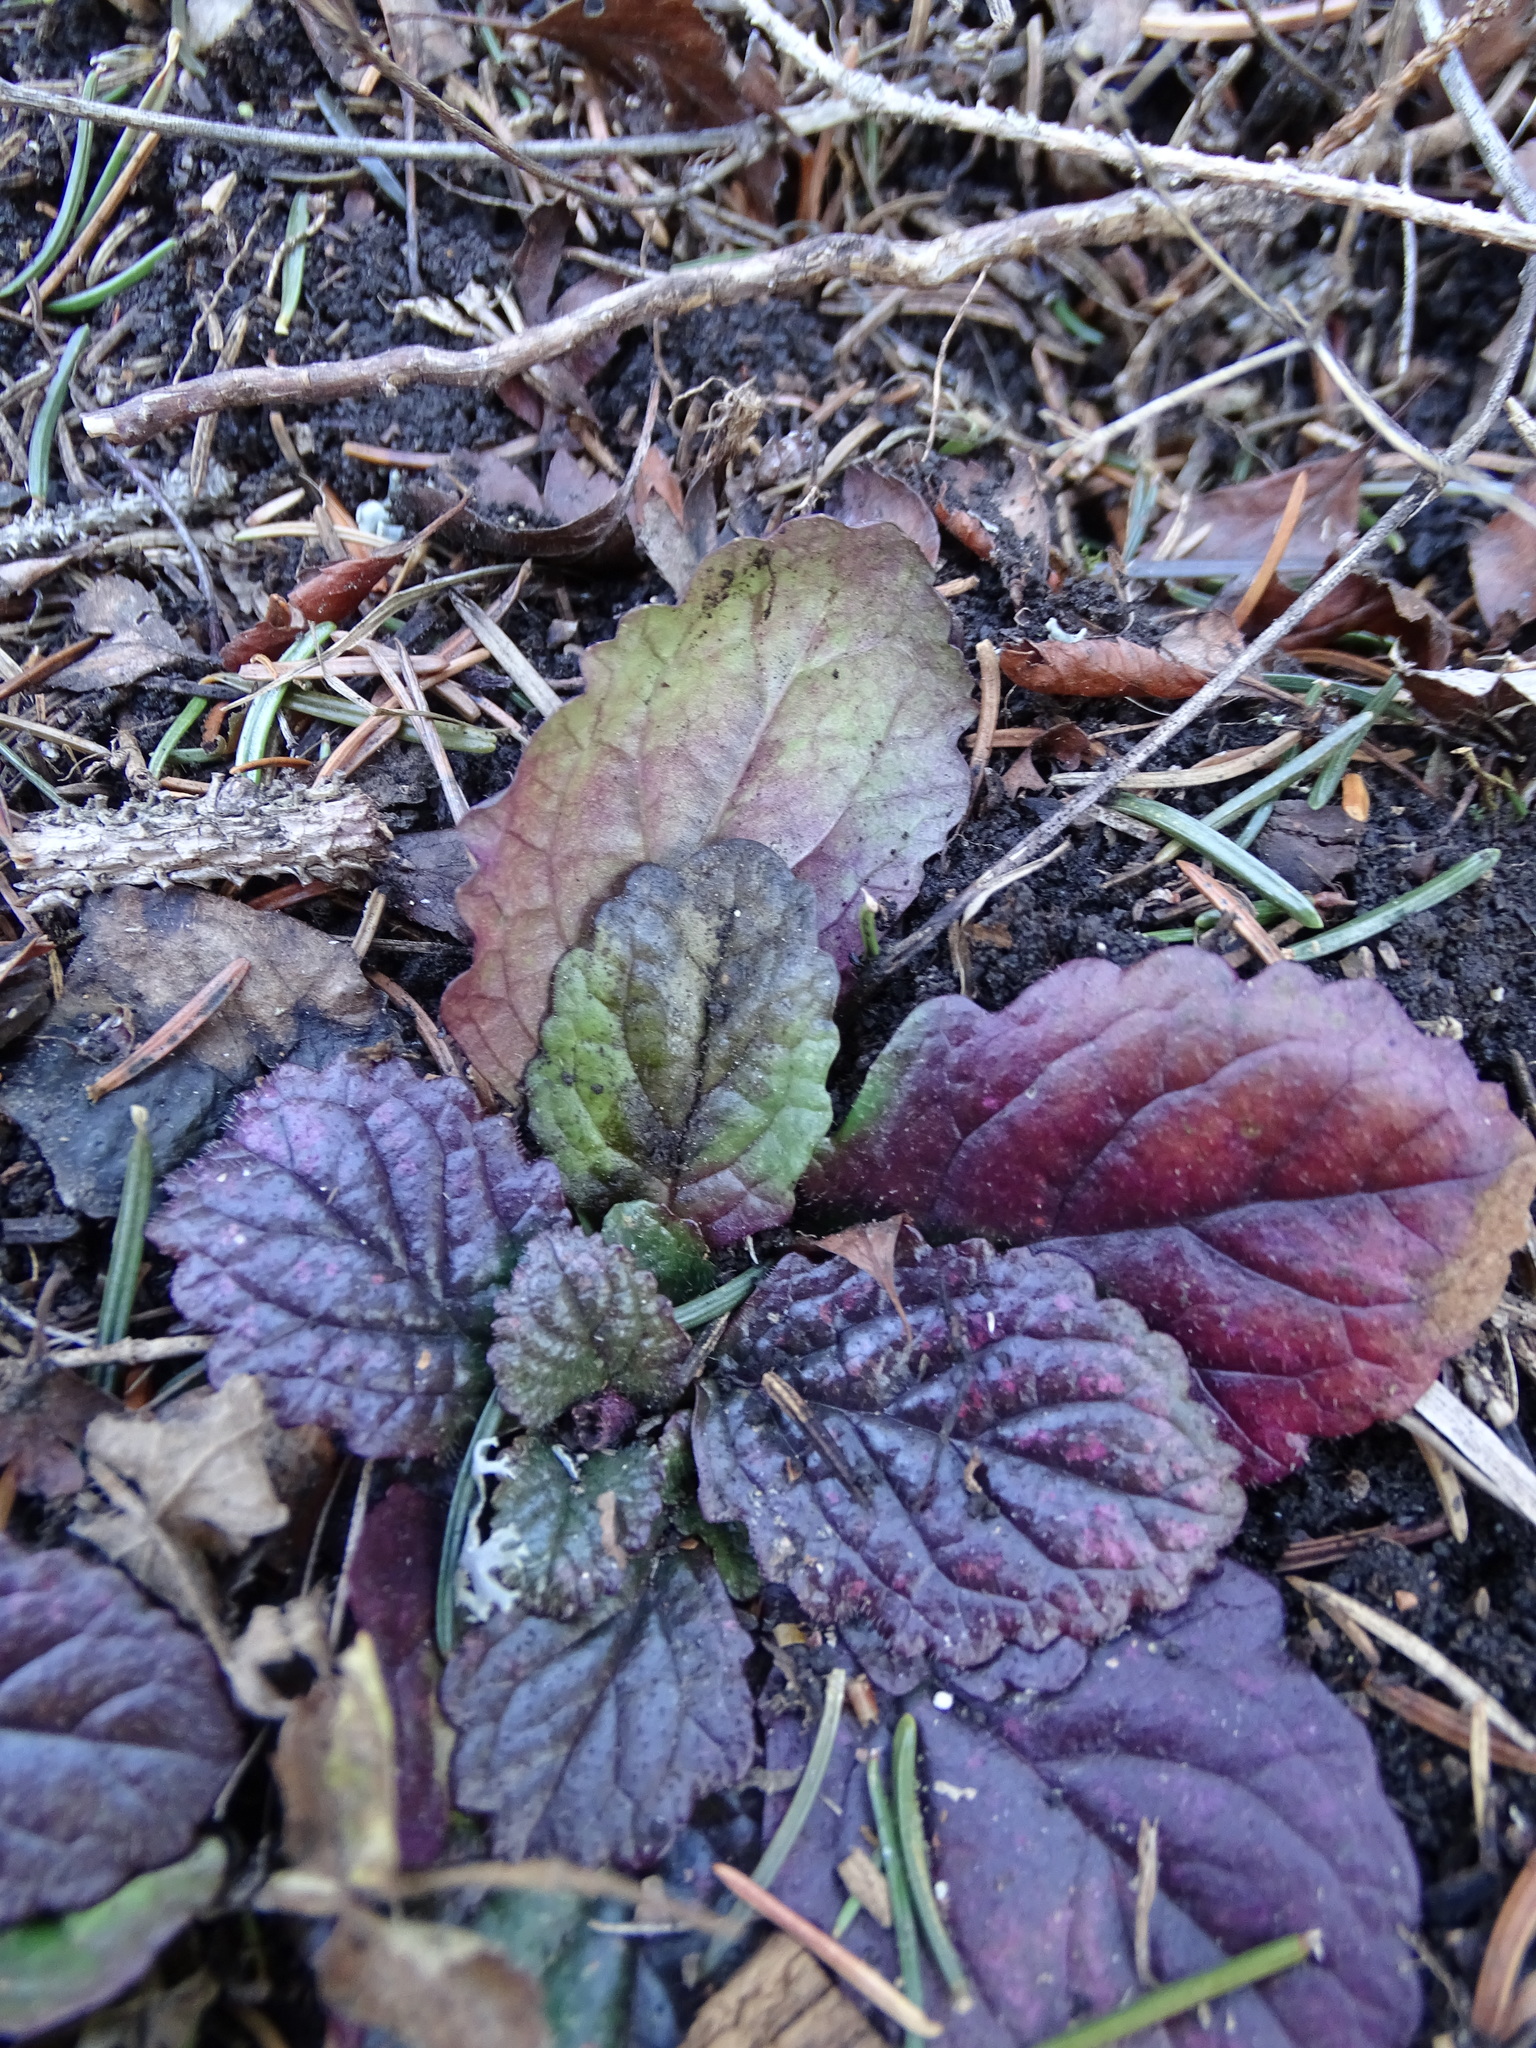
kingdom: Plantae
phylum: Tracheophyta
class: Magnoliopsida
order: Lamiales
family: Lamiaceae
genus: Ajuga
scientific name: Ajuga reptans
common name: Bugle
